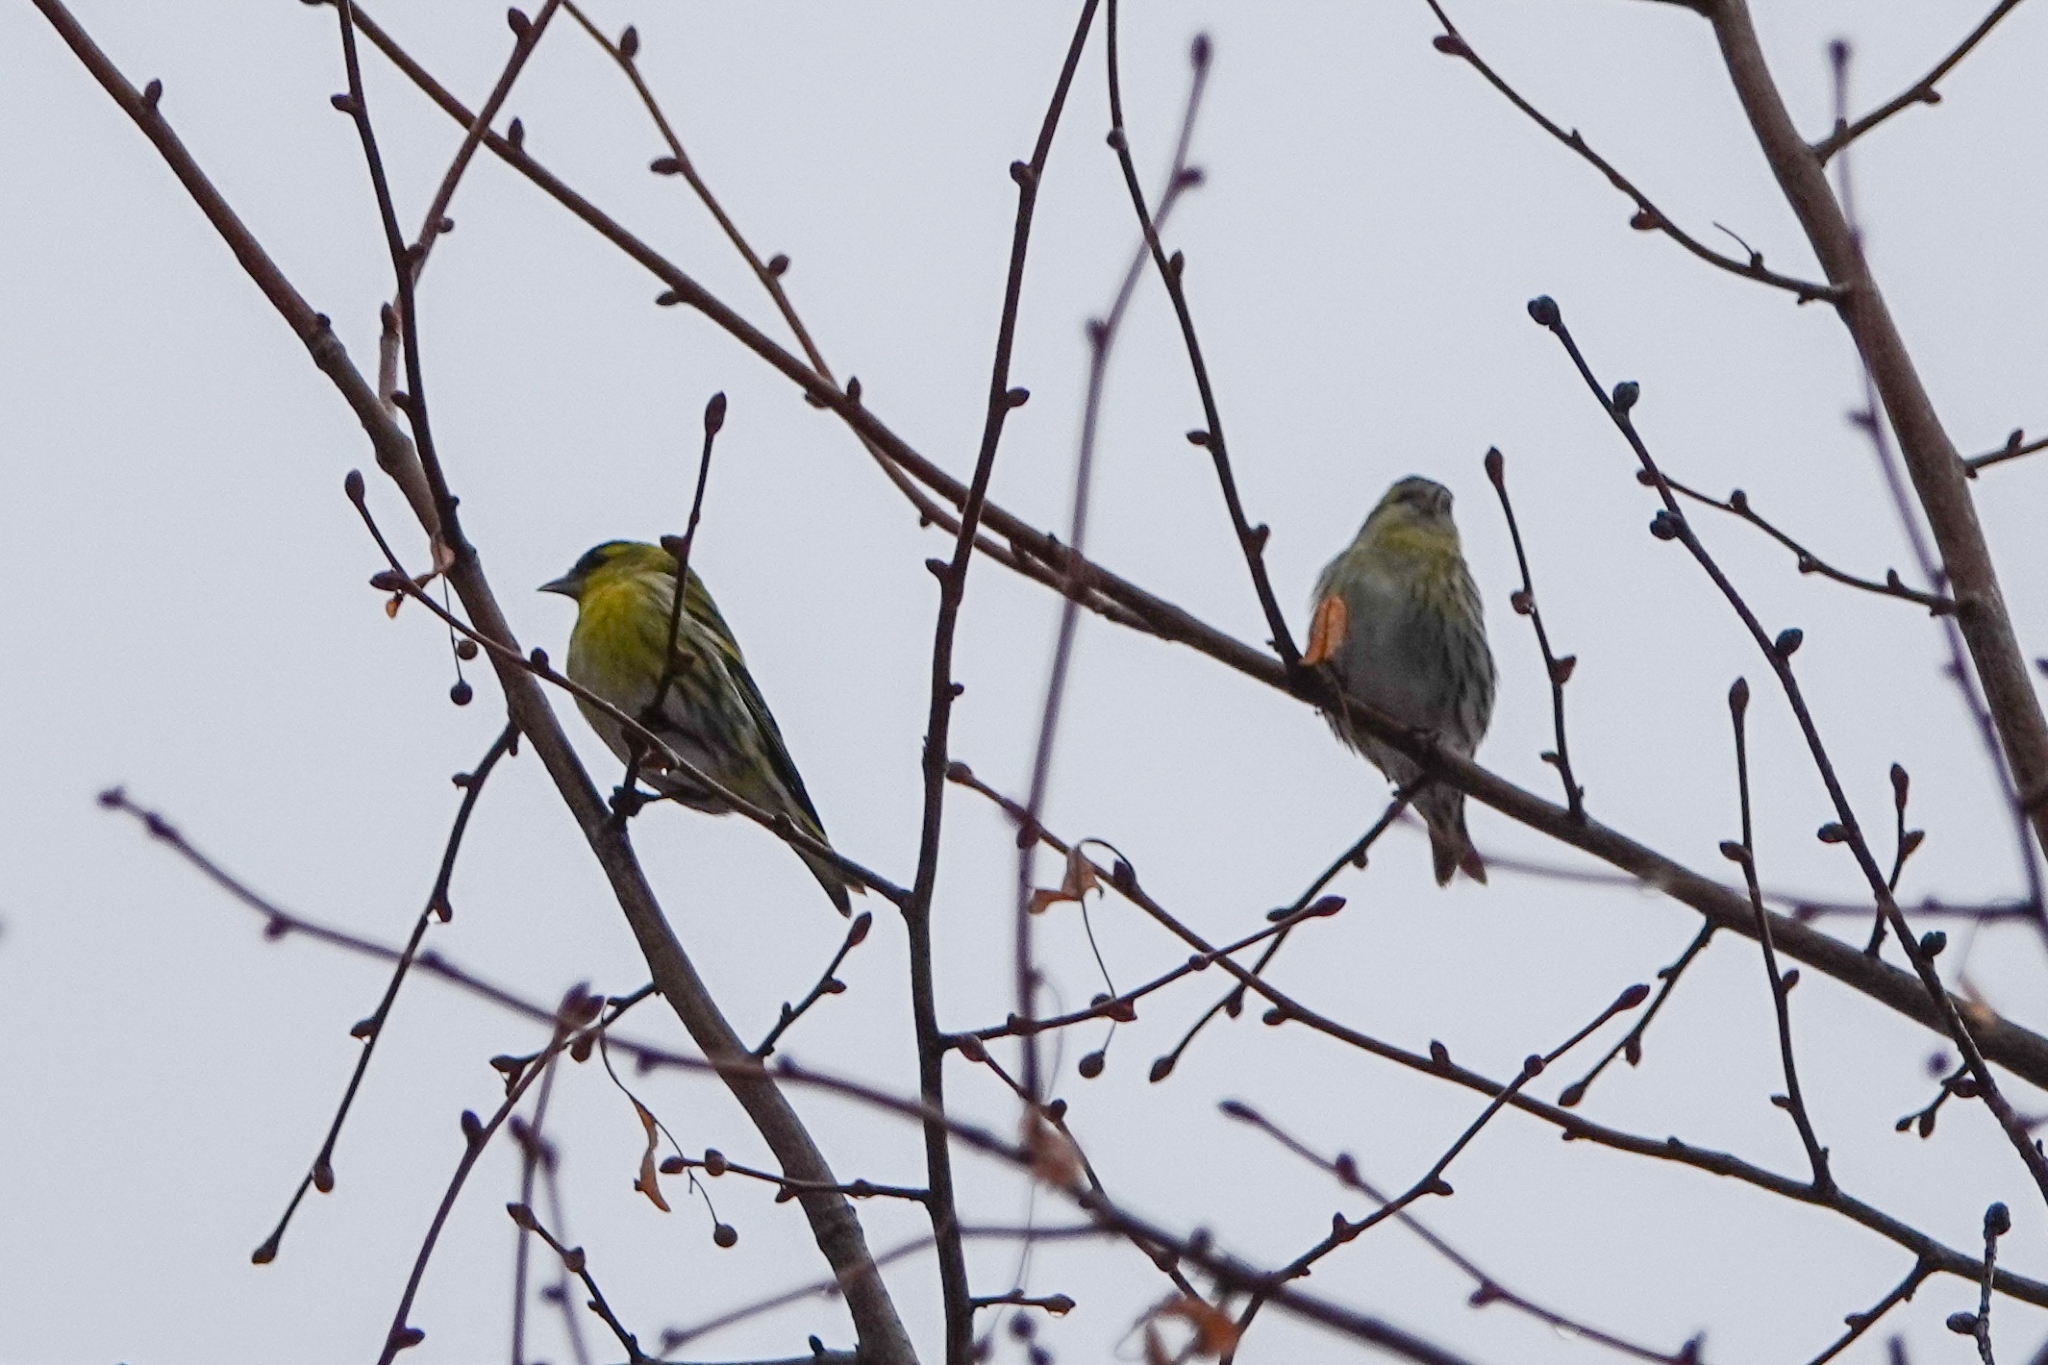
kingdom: Animalia
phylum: Chordata
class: Aves
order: Passeriformes
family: Fringillidae
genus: Spinus
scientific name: Spinus spinus
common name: Eurasian siskin
